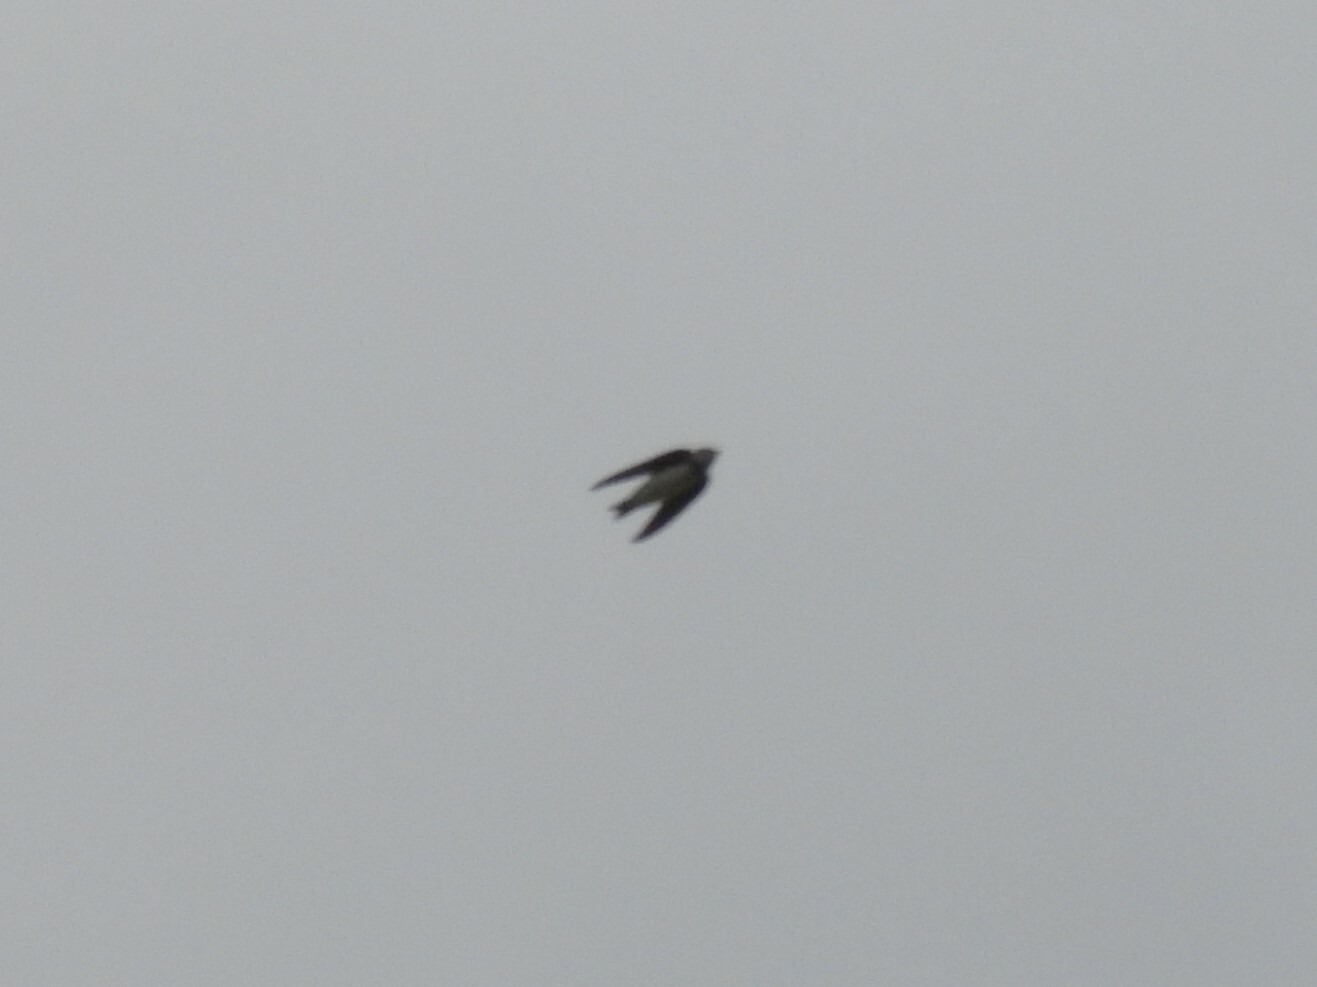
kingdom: Animalia
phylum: Chordata
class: Aves
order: Passeriformes
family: Hirundinidae
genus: Riparia
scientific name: Riparia riparia
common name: Sand martin
